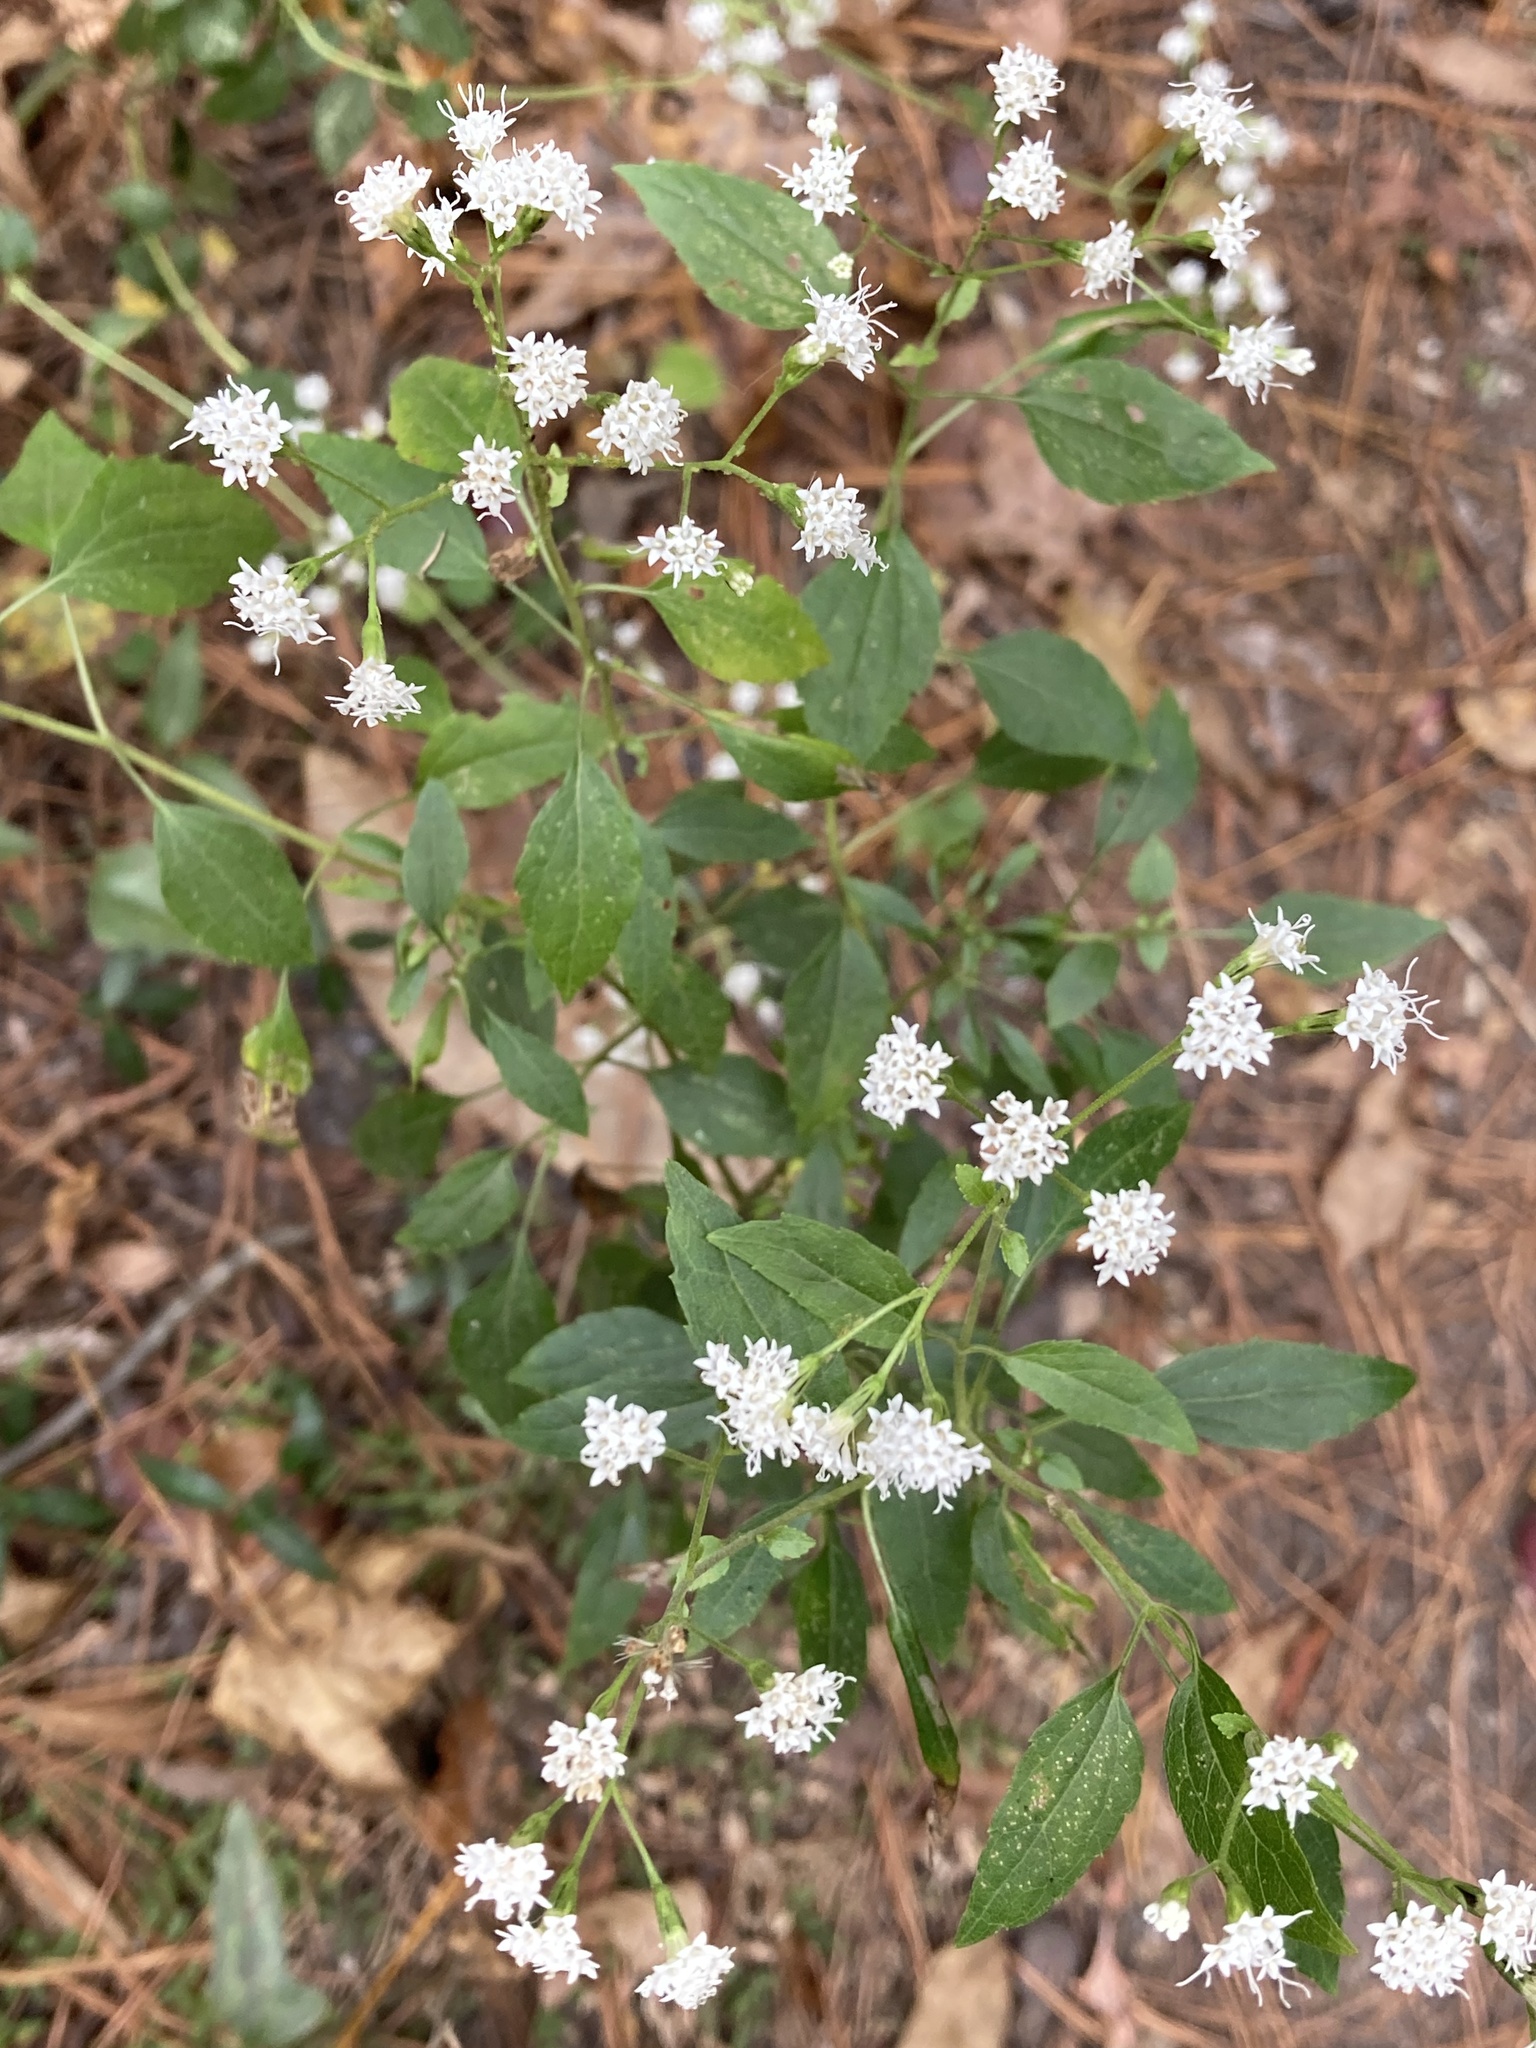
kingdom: Plantae
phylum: Tracheophyta
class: Magnoliopsida
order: Asterales
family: Asteraceae
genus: Ageratina
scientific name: Ageratina jucunda
